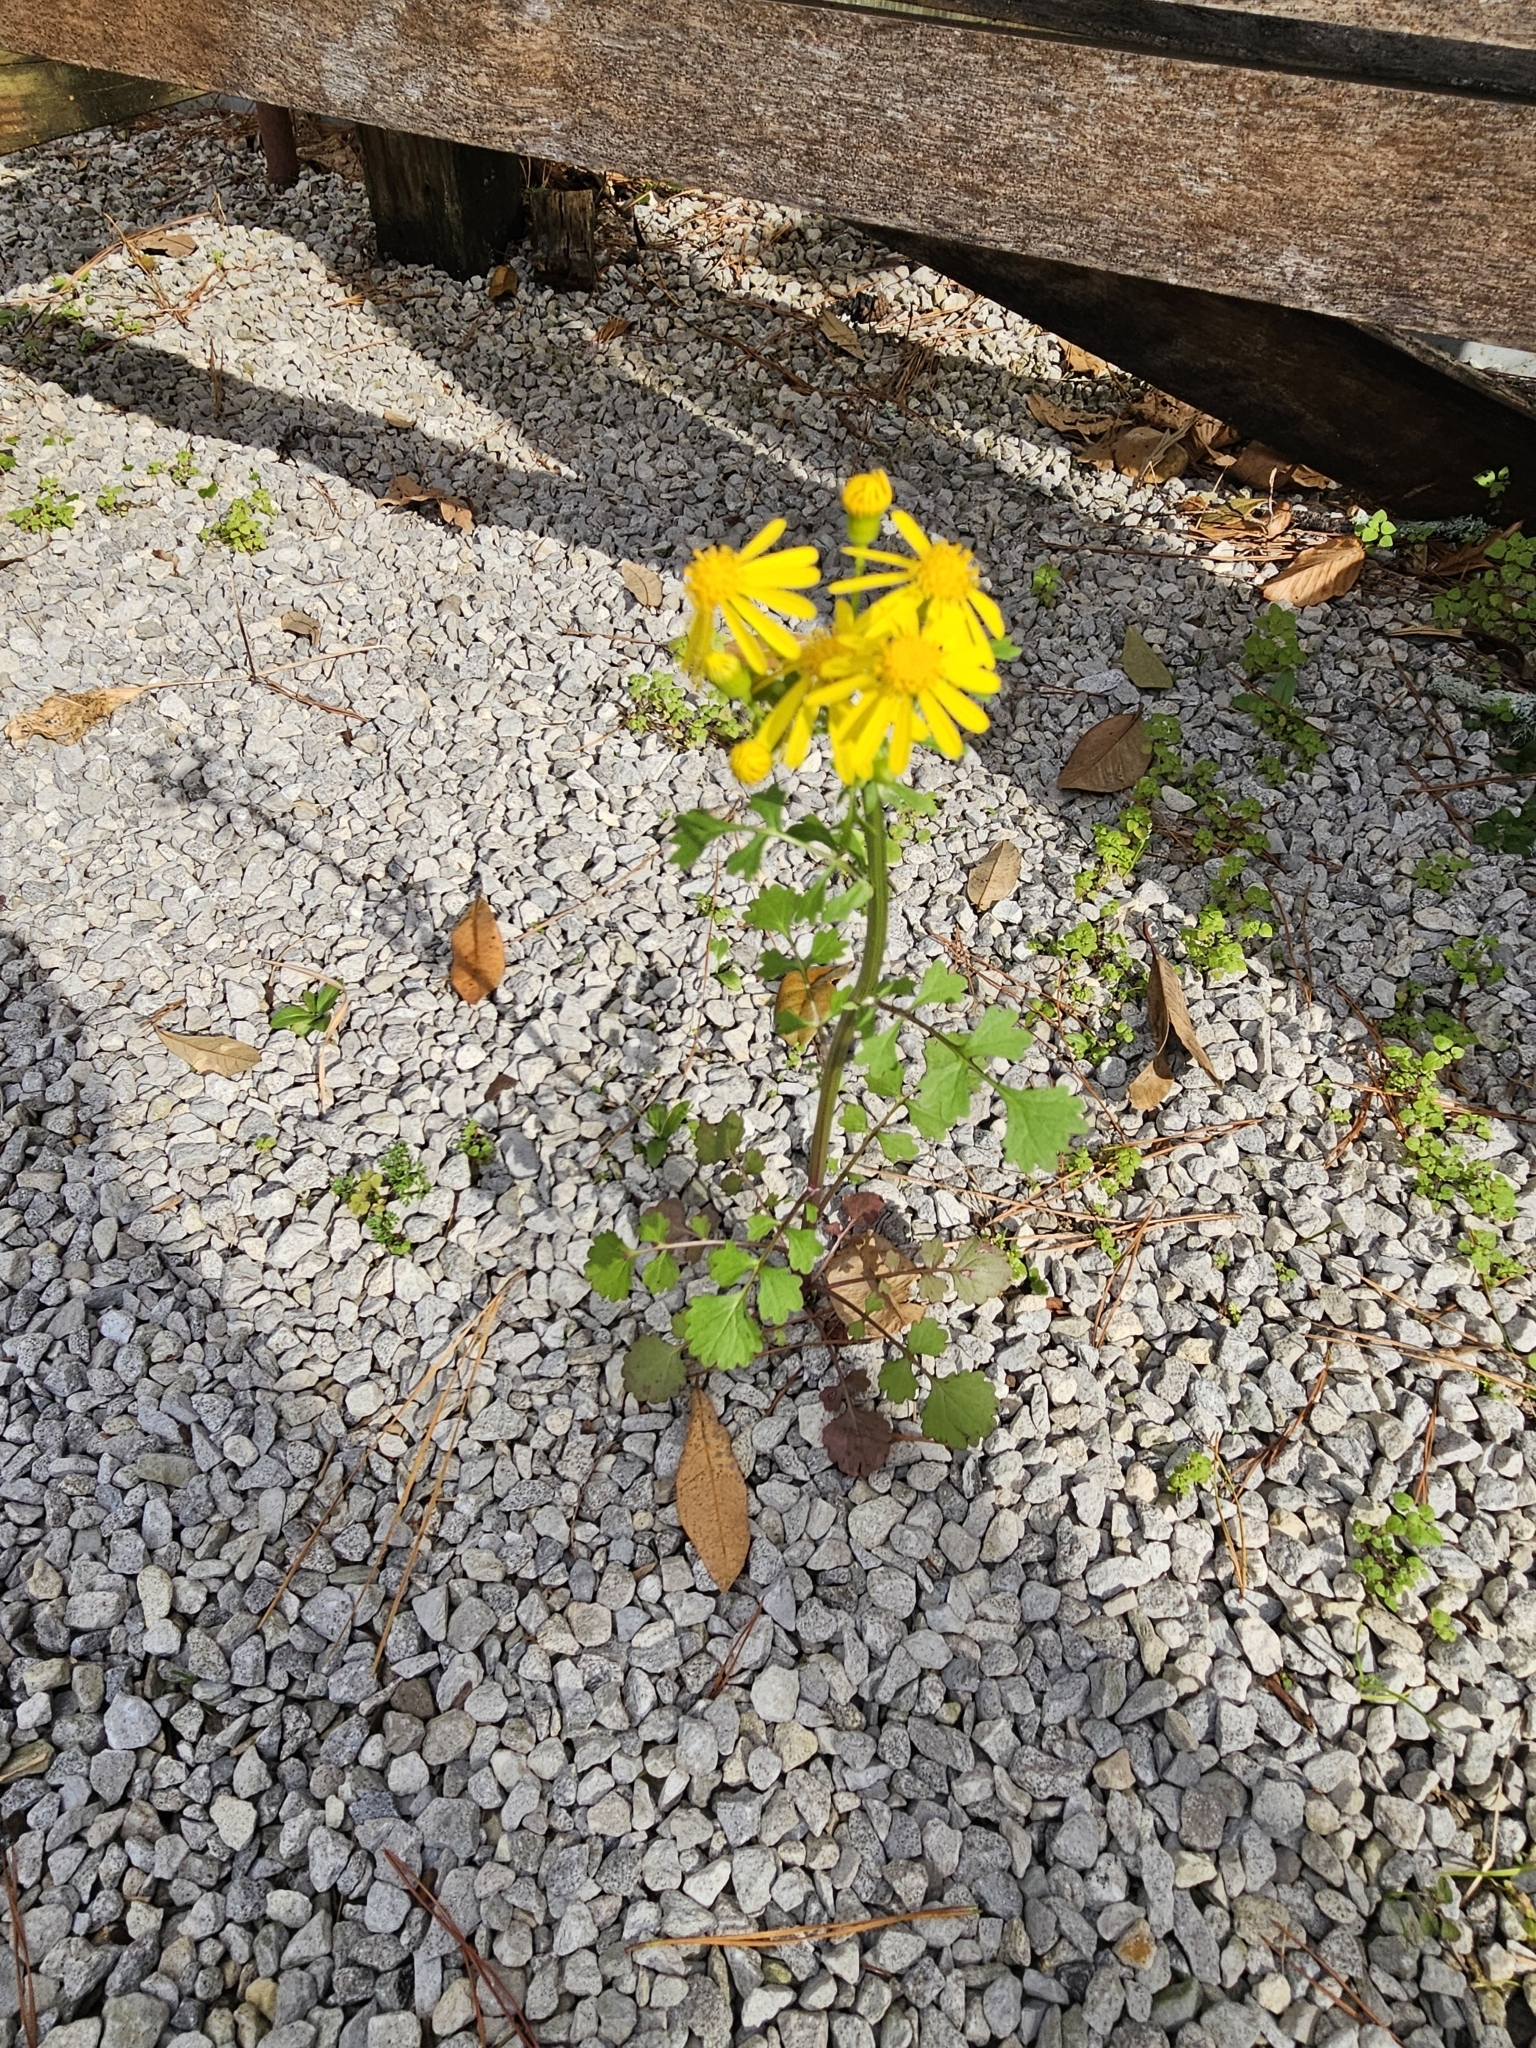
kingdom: Plantae
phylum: Tracheophyta
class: Magnoliopsida
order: Asterales
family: Asteraceae
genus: Packera
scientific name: Packera glabella
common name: Butterweed
